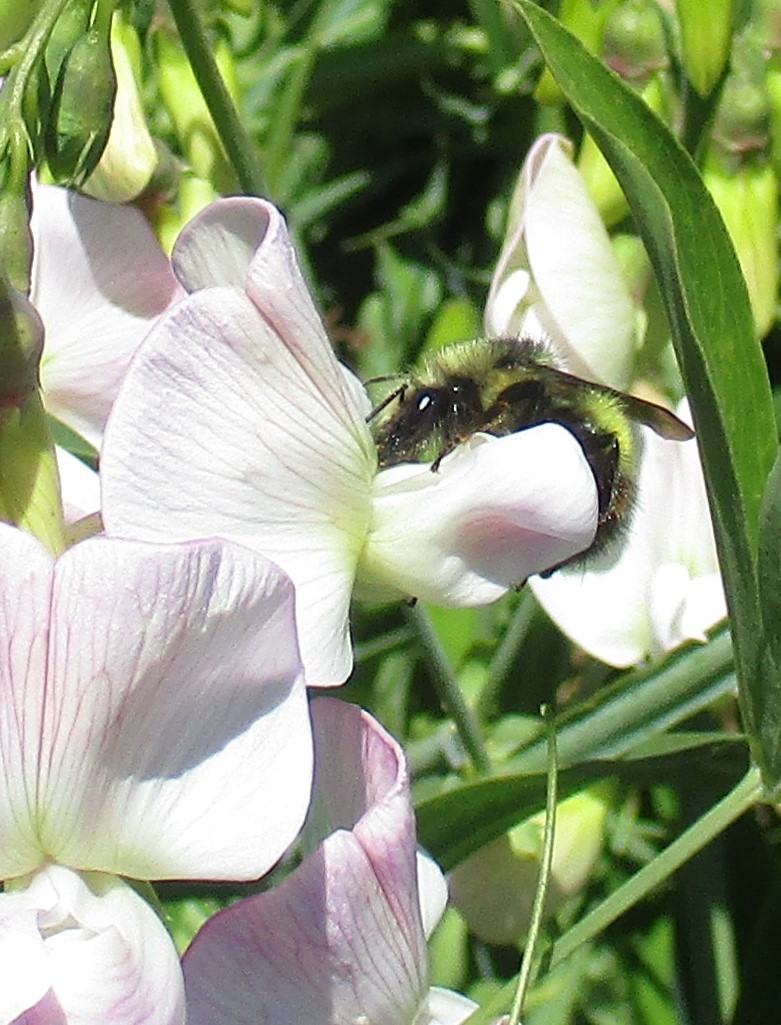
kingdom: Animalia
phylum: Arthropoda
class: Insecta
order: Hymenoptera
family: Apidae
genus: Bombus
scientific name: Bombus flavifrons
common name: Yellow head bumble bee
